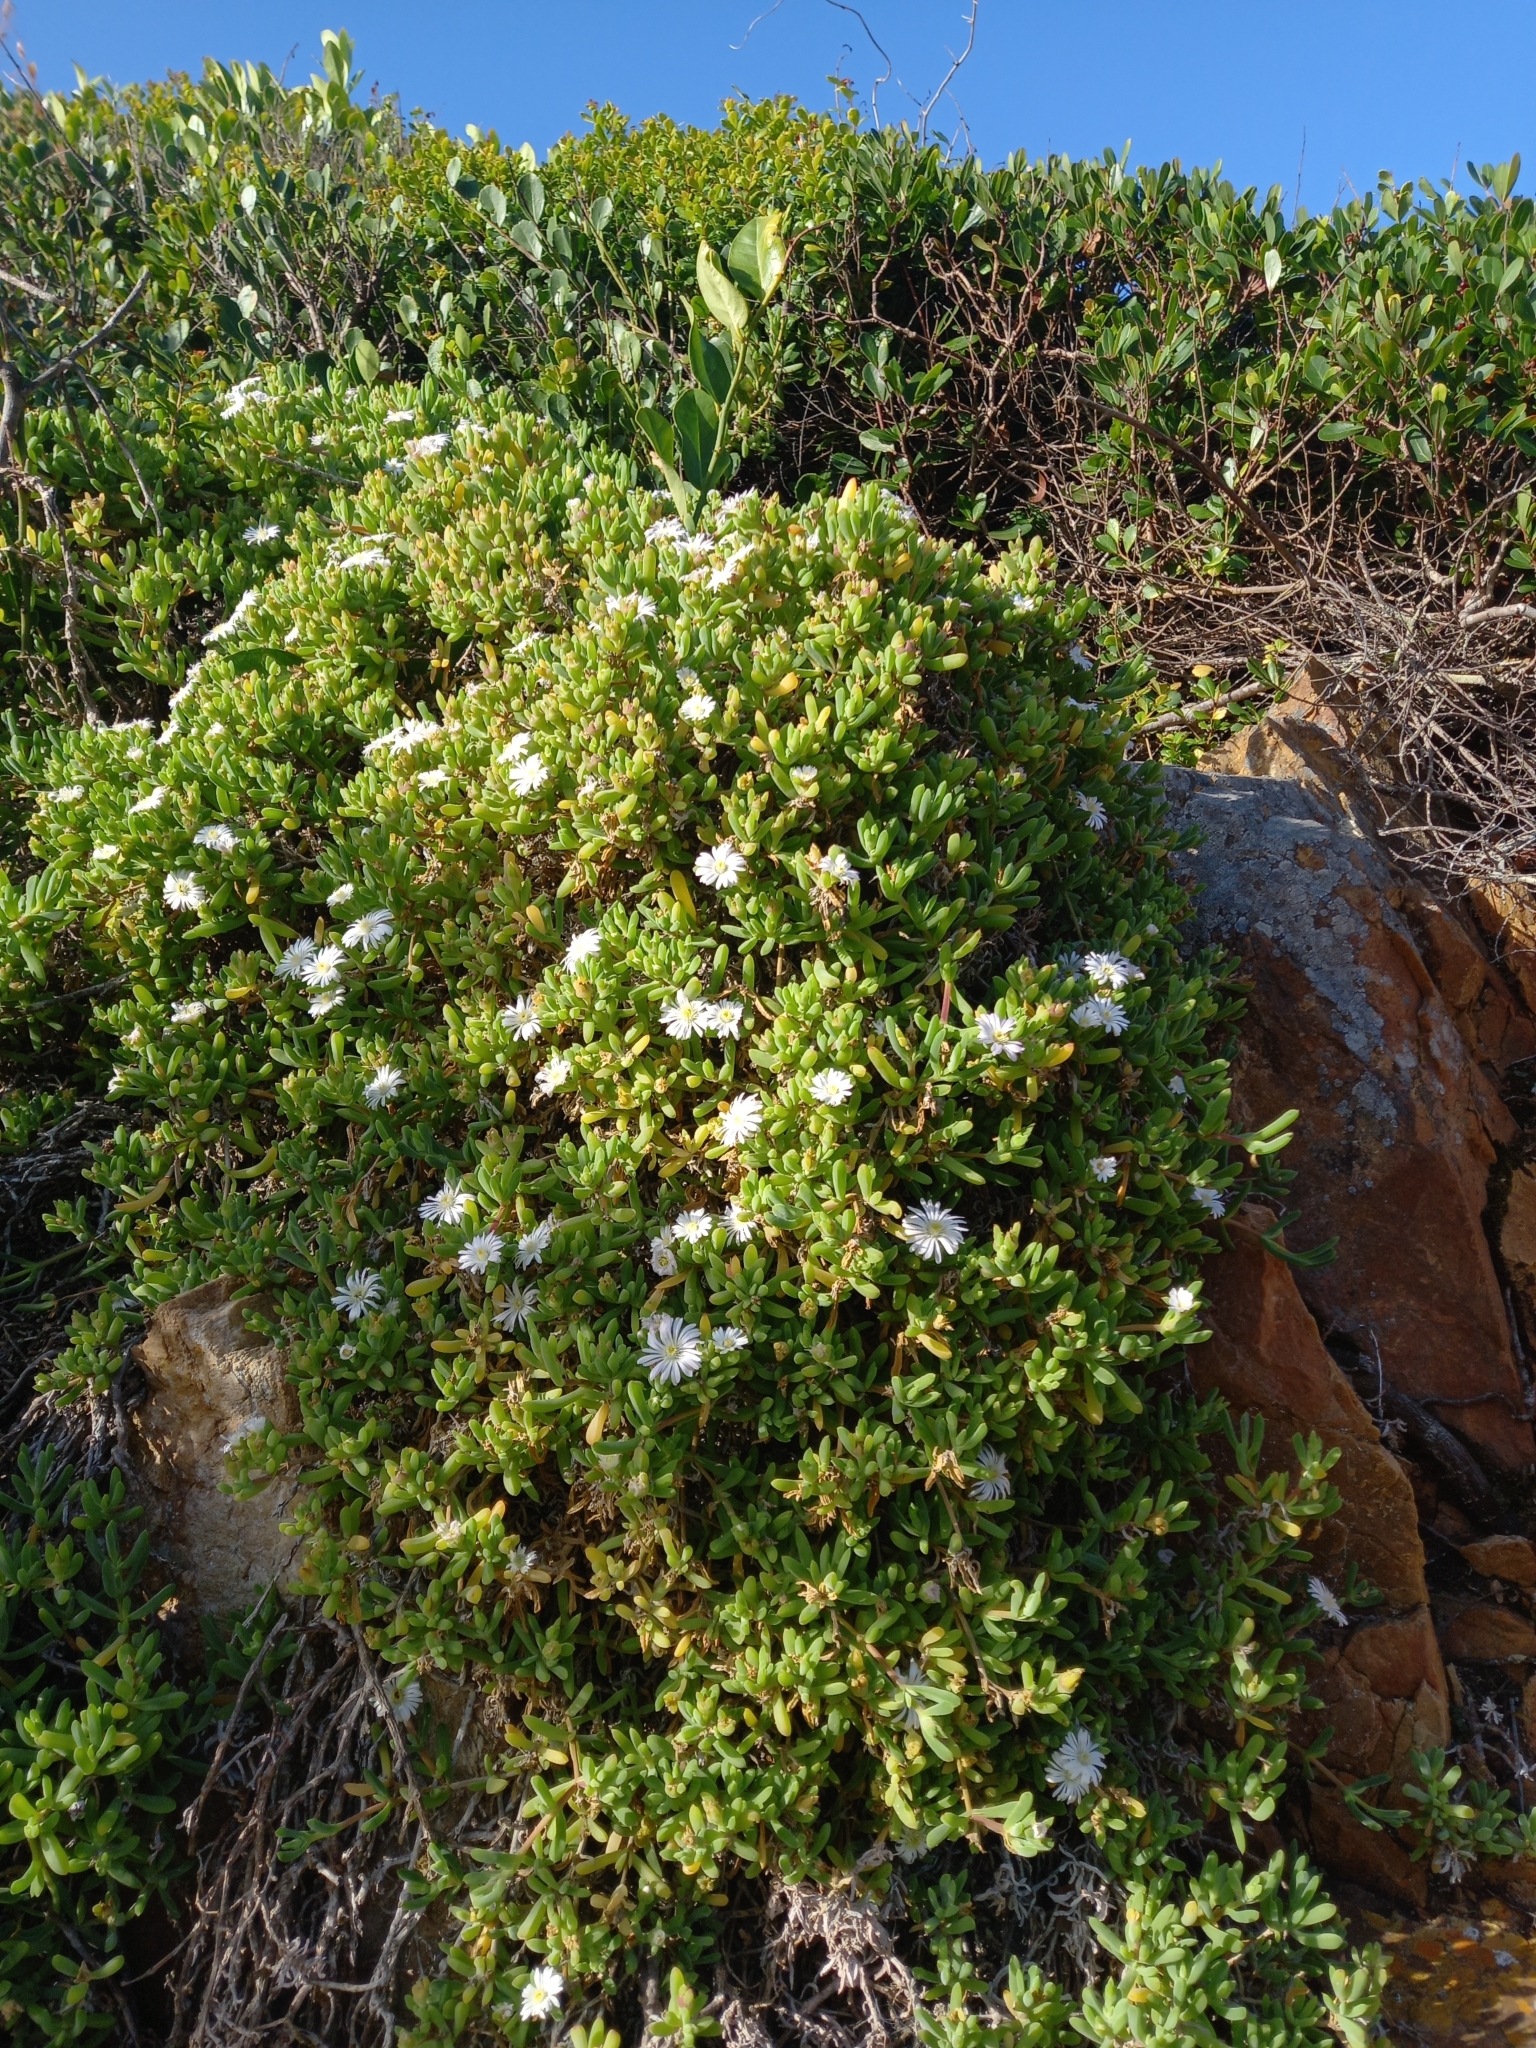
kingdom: Plantae
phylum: Tracheophyta
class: Magnoliopsida
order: Caryophyllales
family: Aizoaceae
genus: Delosperma
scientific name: Delosperma patersoniae
